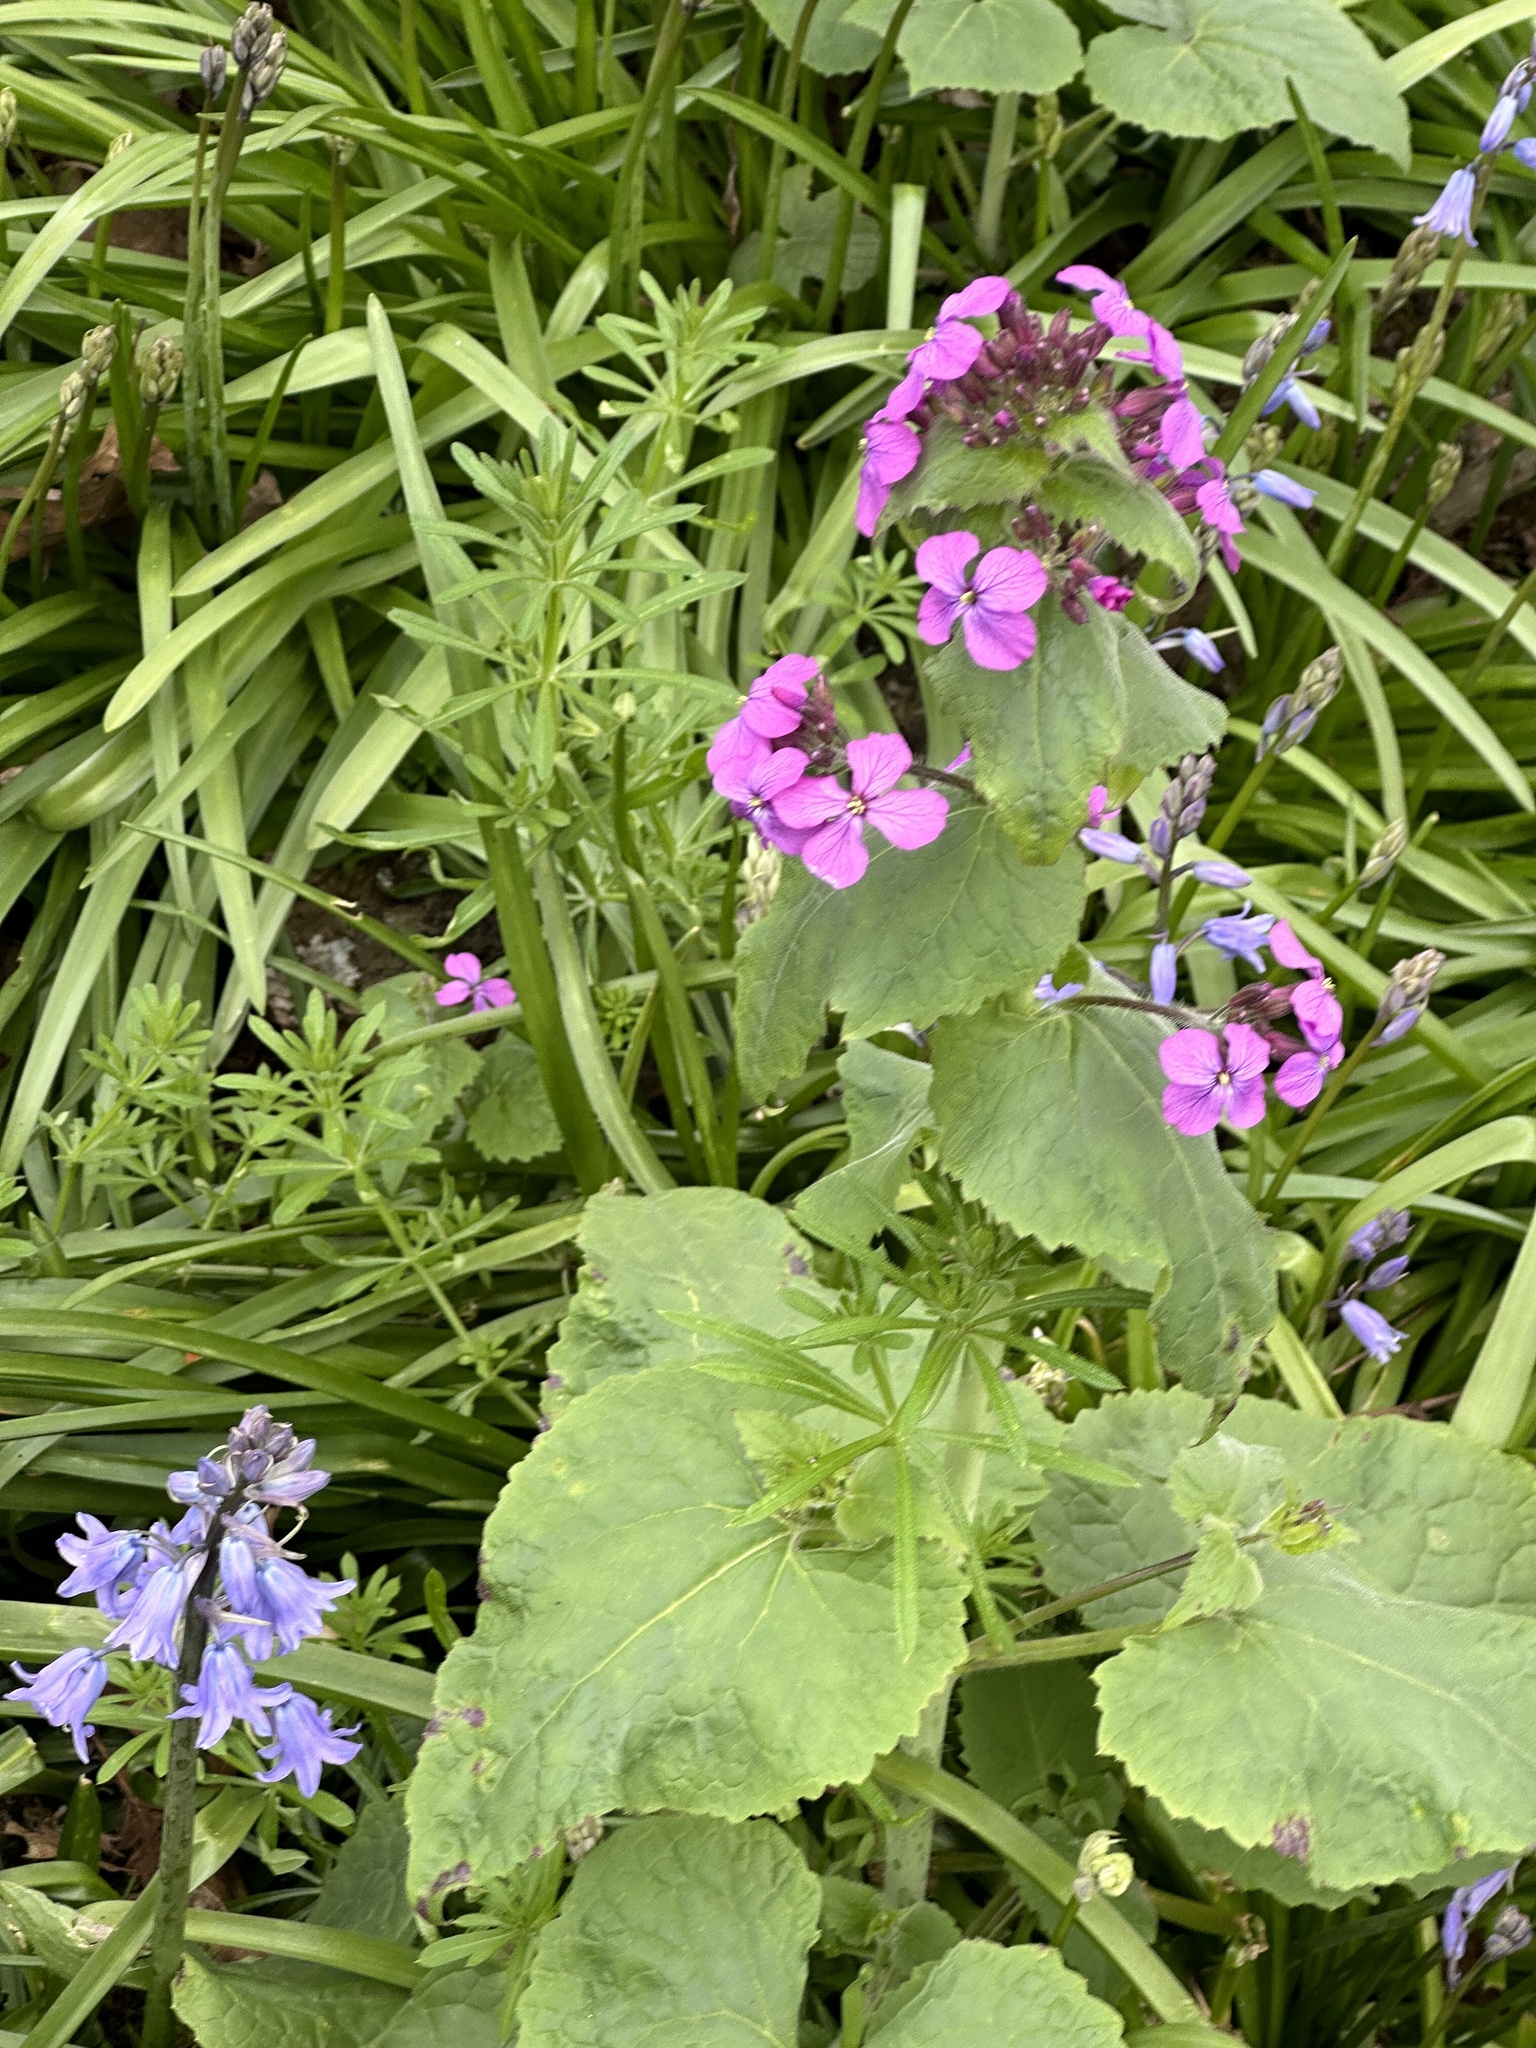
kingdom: Plantae
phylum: Tracheophyta
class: Magnoliopsida
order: Brassicales
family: Brassicaceae
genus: Lunaria
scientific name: Lunaria annua
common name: Honesty
